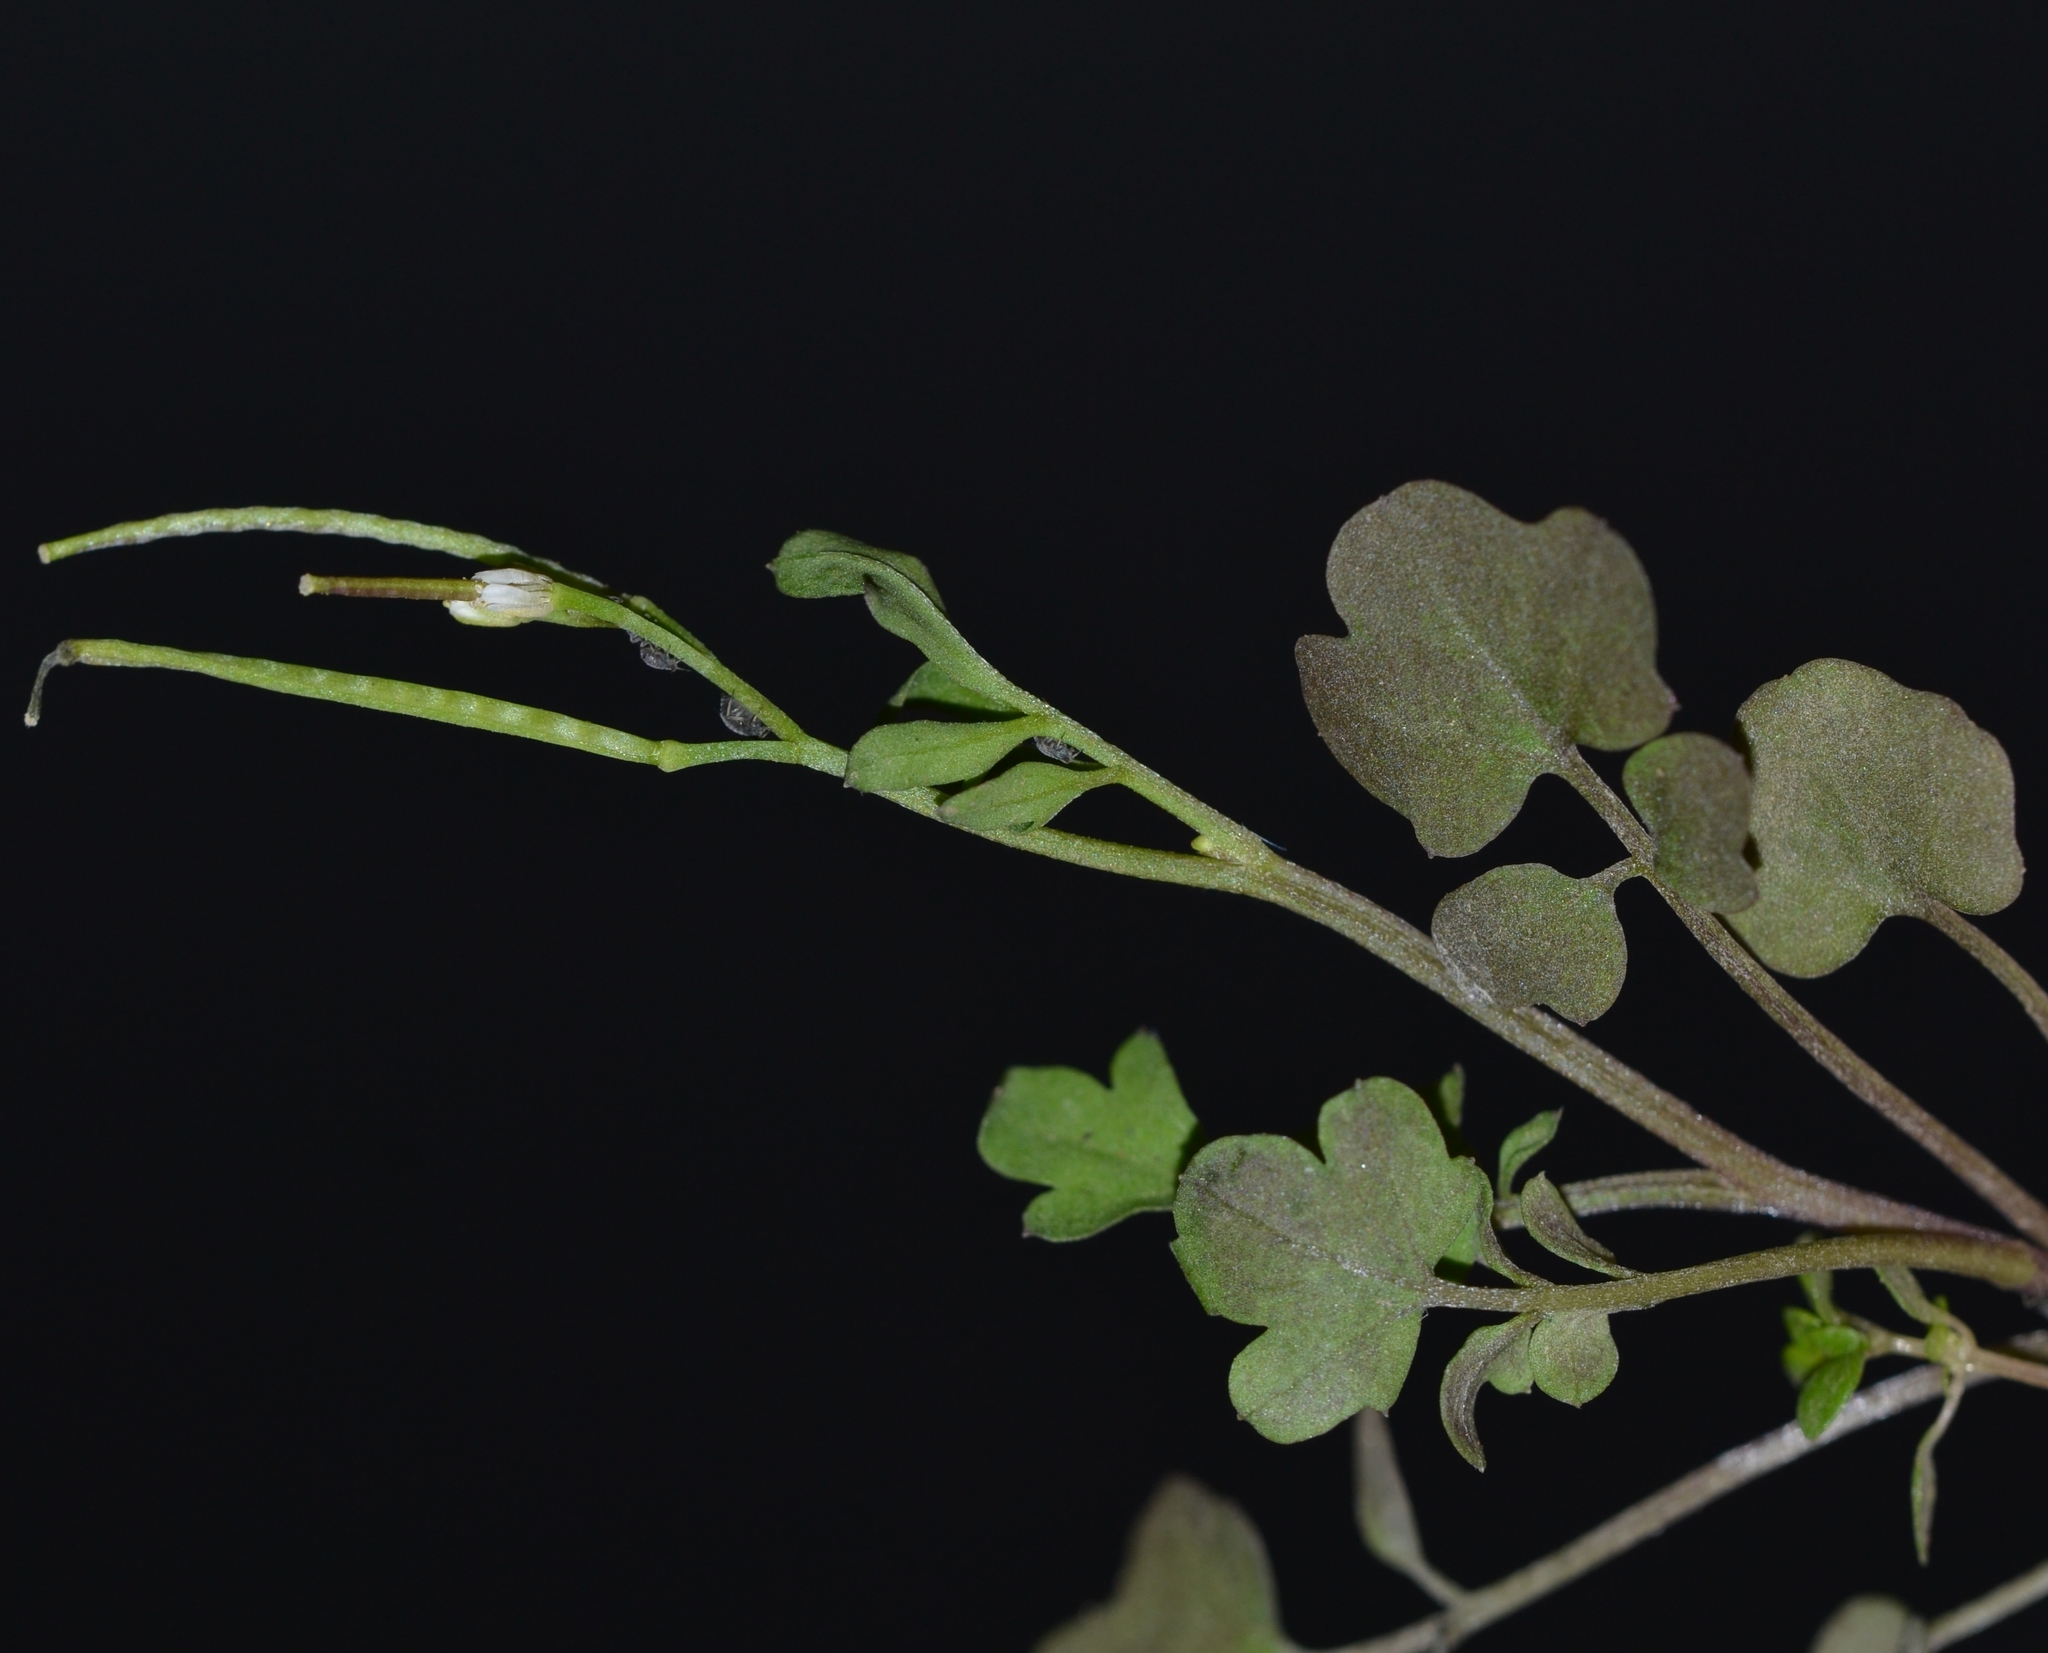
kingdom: Plantae
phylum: Tracheophyta
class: Magnoliopsida
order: Brassicales
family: Brassicaceae
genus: Cardamine
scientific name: Cardamine occulta
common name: Asian wavy bittercress
